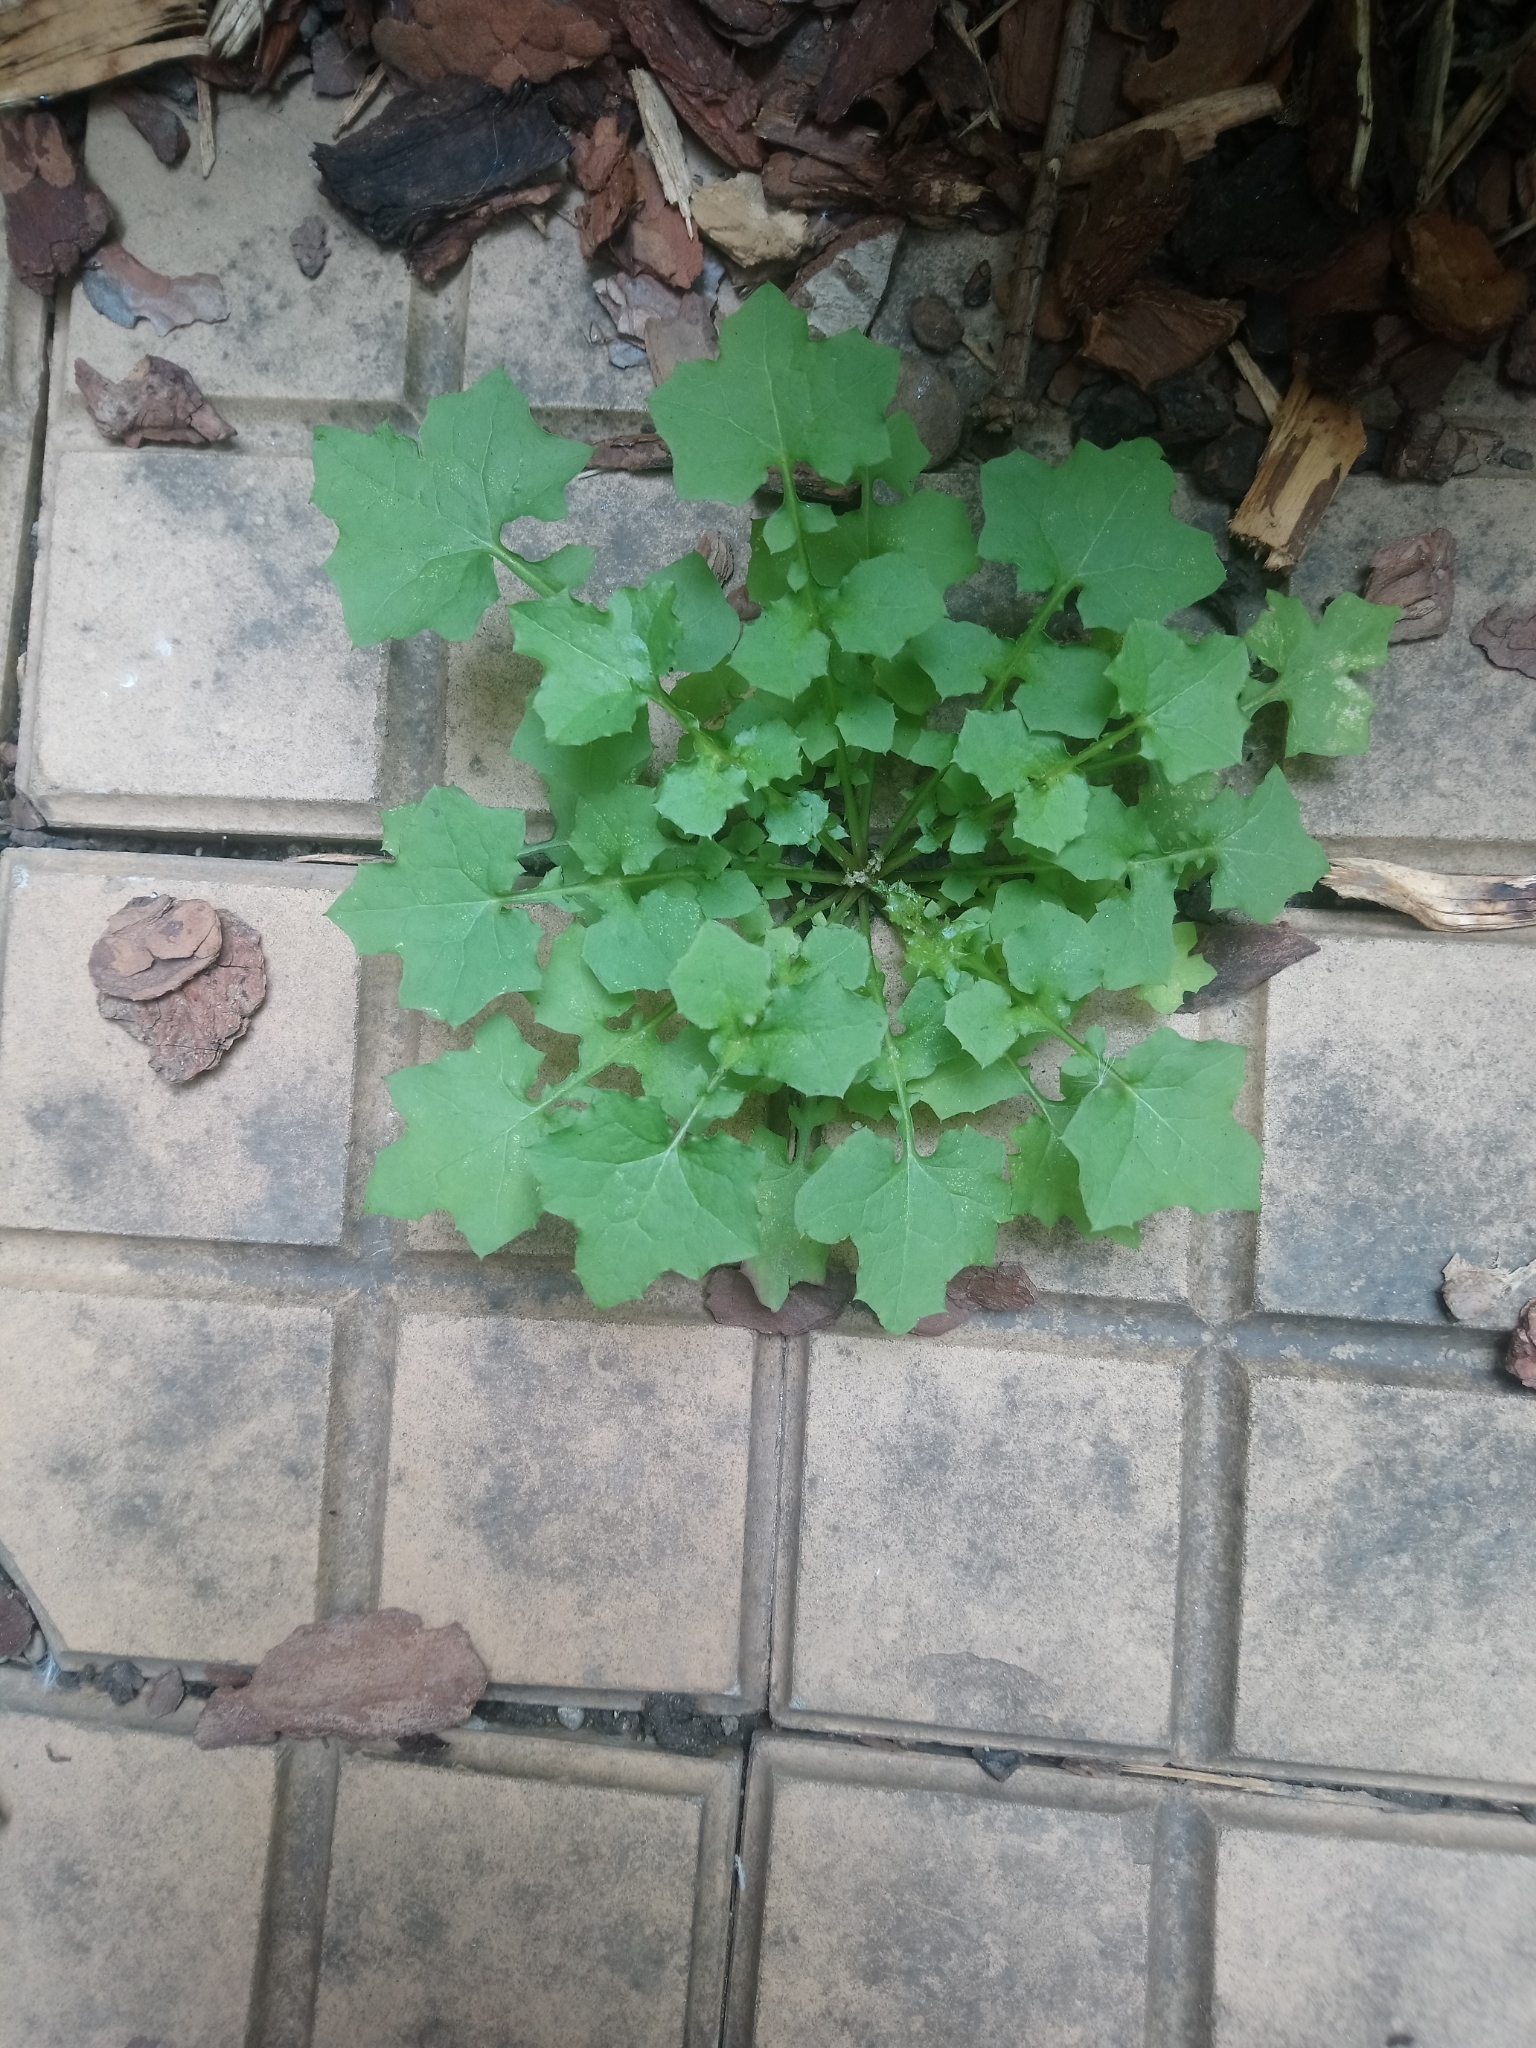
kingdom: Plantae
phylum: Tracheophyta
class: Magnoliopsida
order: Asterales
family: Asteraceae
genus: Mycelis
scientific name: Mycelis muralis
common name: Wall lettuce
